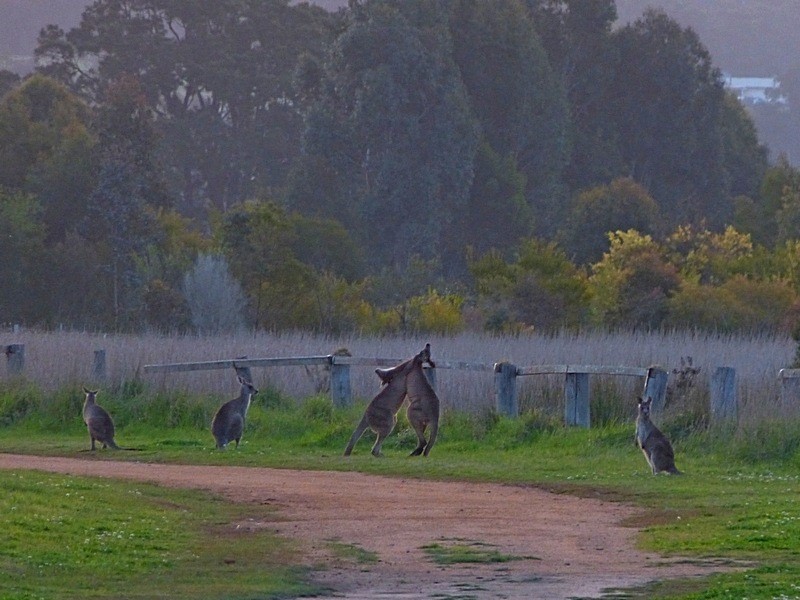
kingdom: Animalia
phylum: Chordata
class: Mammalia
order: Diprotodontia
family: Macropodidae
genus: Macropus
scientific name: Macropus giganteus
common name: Eastern grey kangaroo
